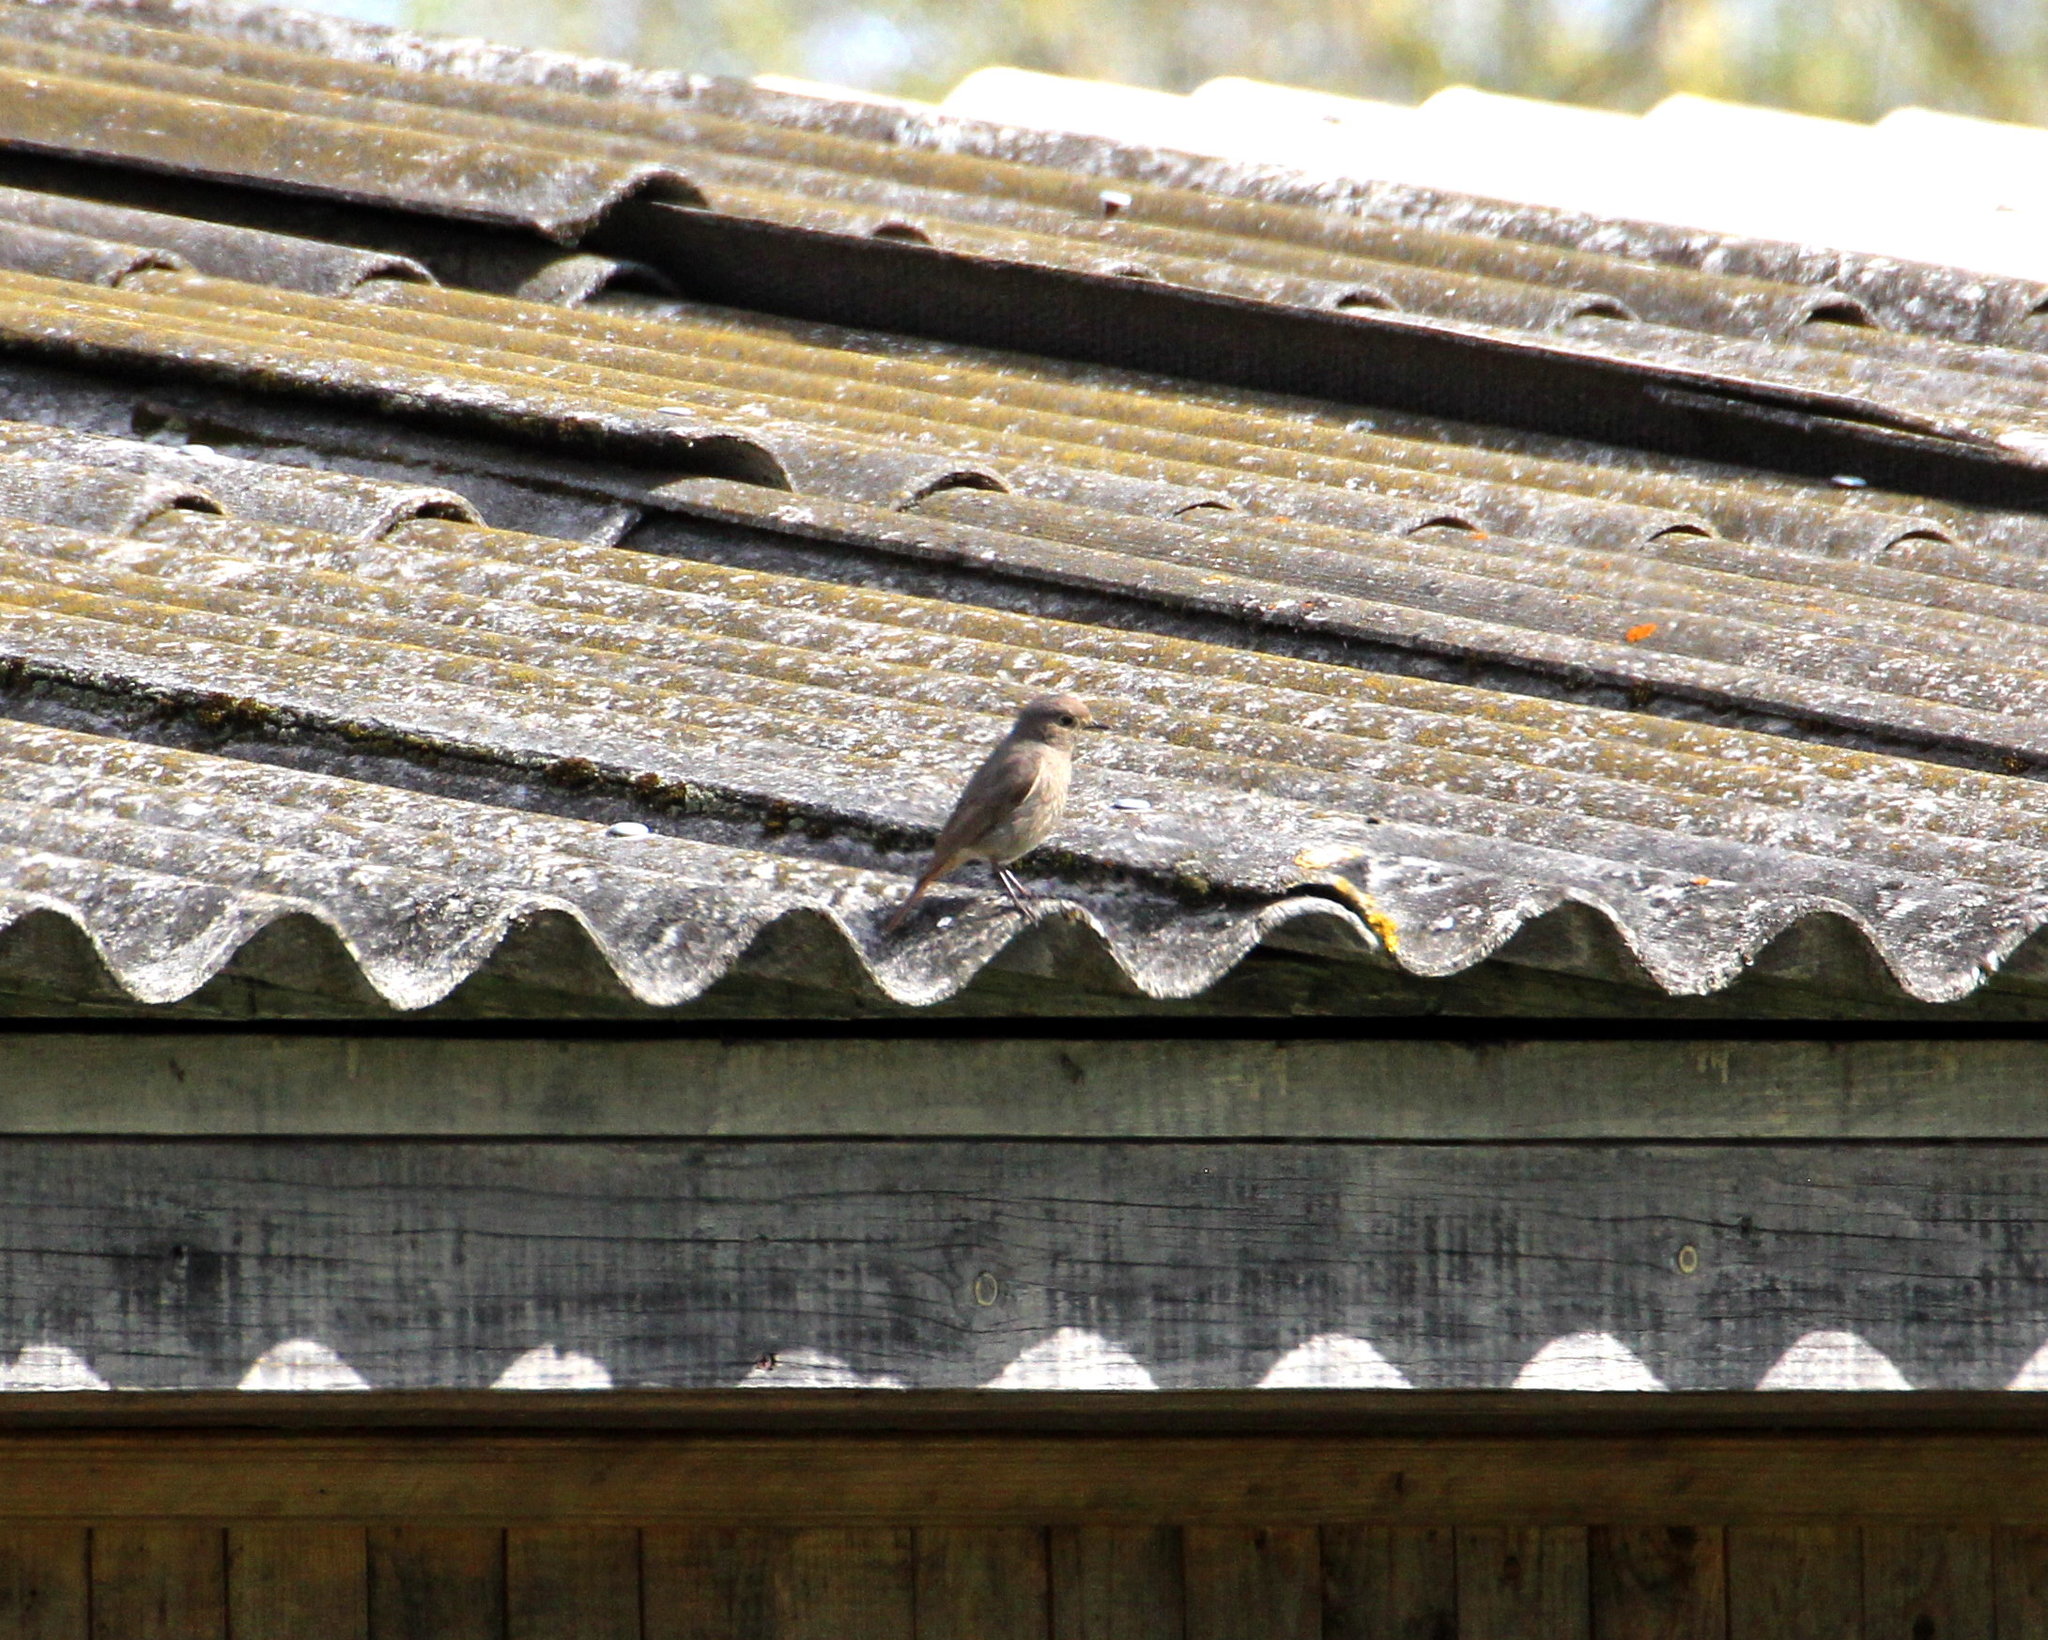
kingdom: Animalia
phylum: Chordata
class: Aves
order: Passeriformes
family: Muscicapidae
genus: Phoenicurus
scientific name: Phoenicurus ochruros
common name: Black redstart
